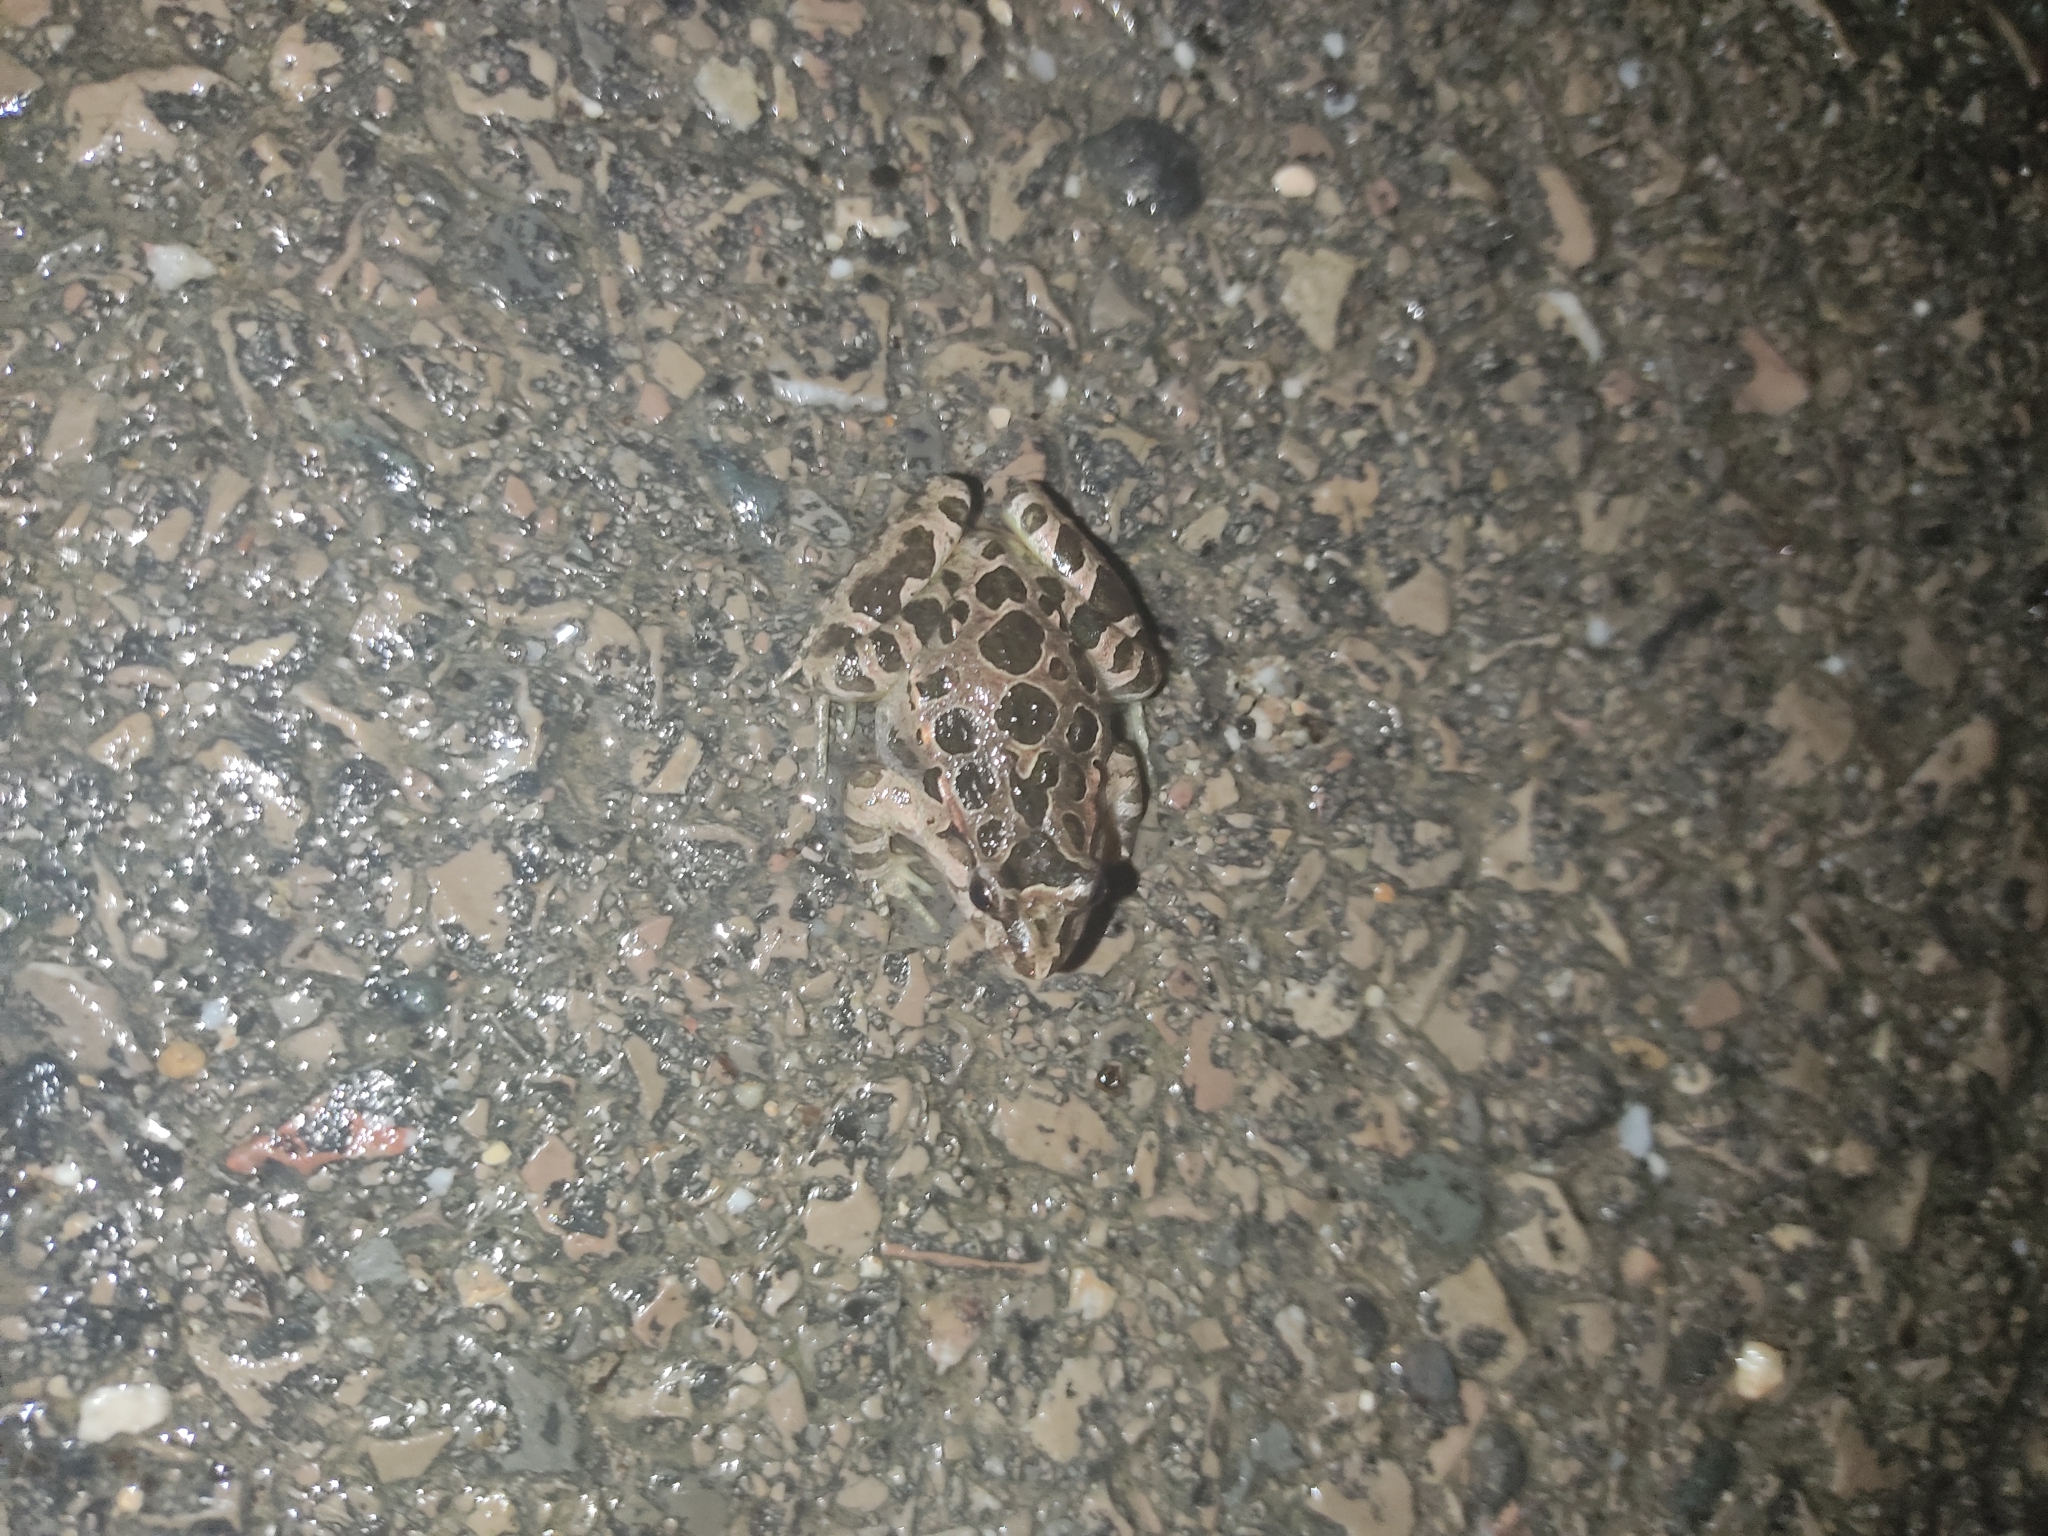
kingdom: Animalia
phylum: Chordata
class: Amphibia
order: Anura
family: Alytidae
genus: Discoglossus
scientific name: Discoglossus pictus
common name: Painted frog
